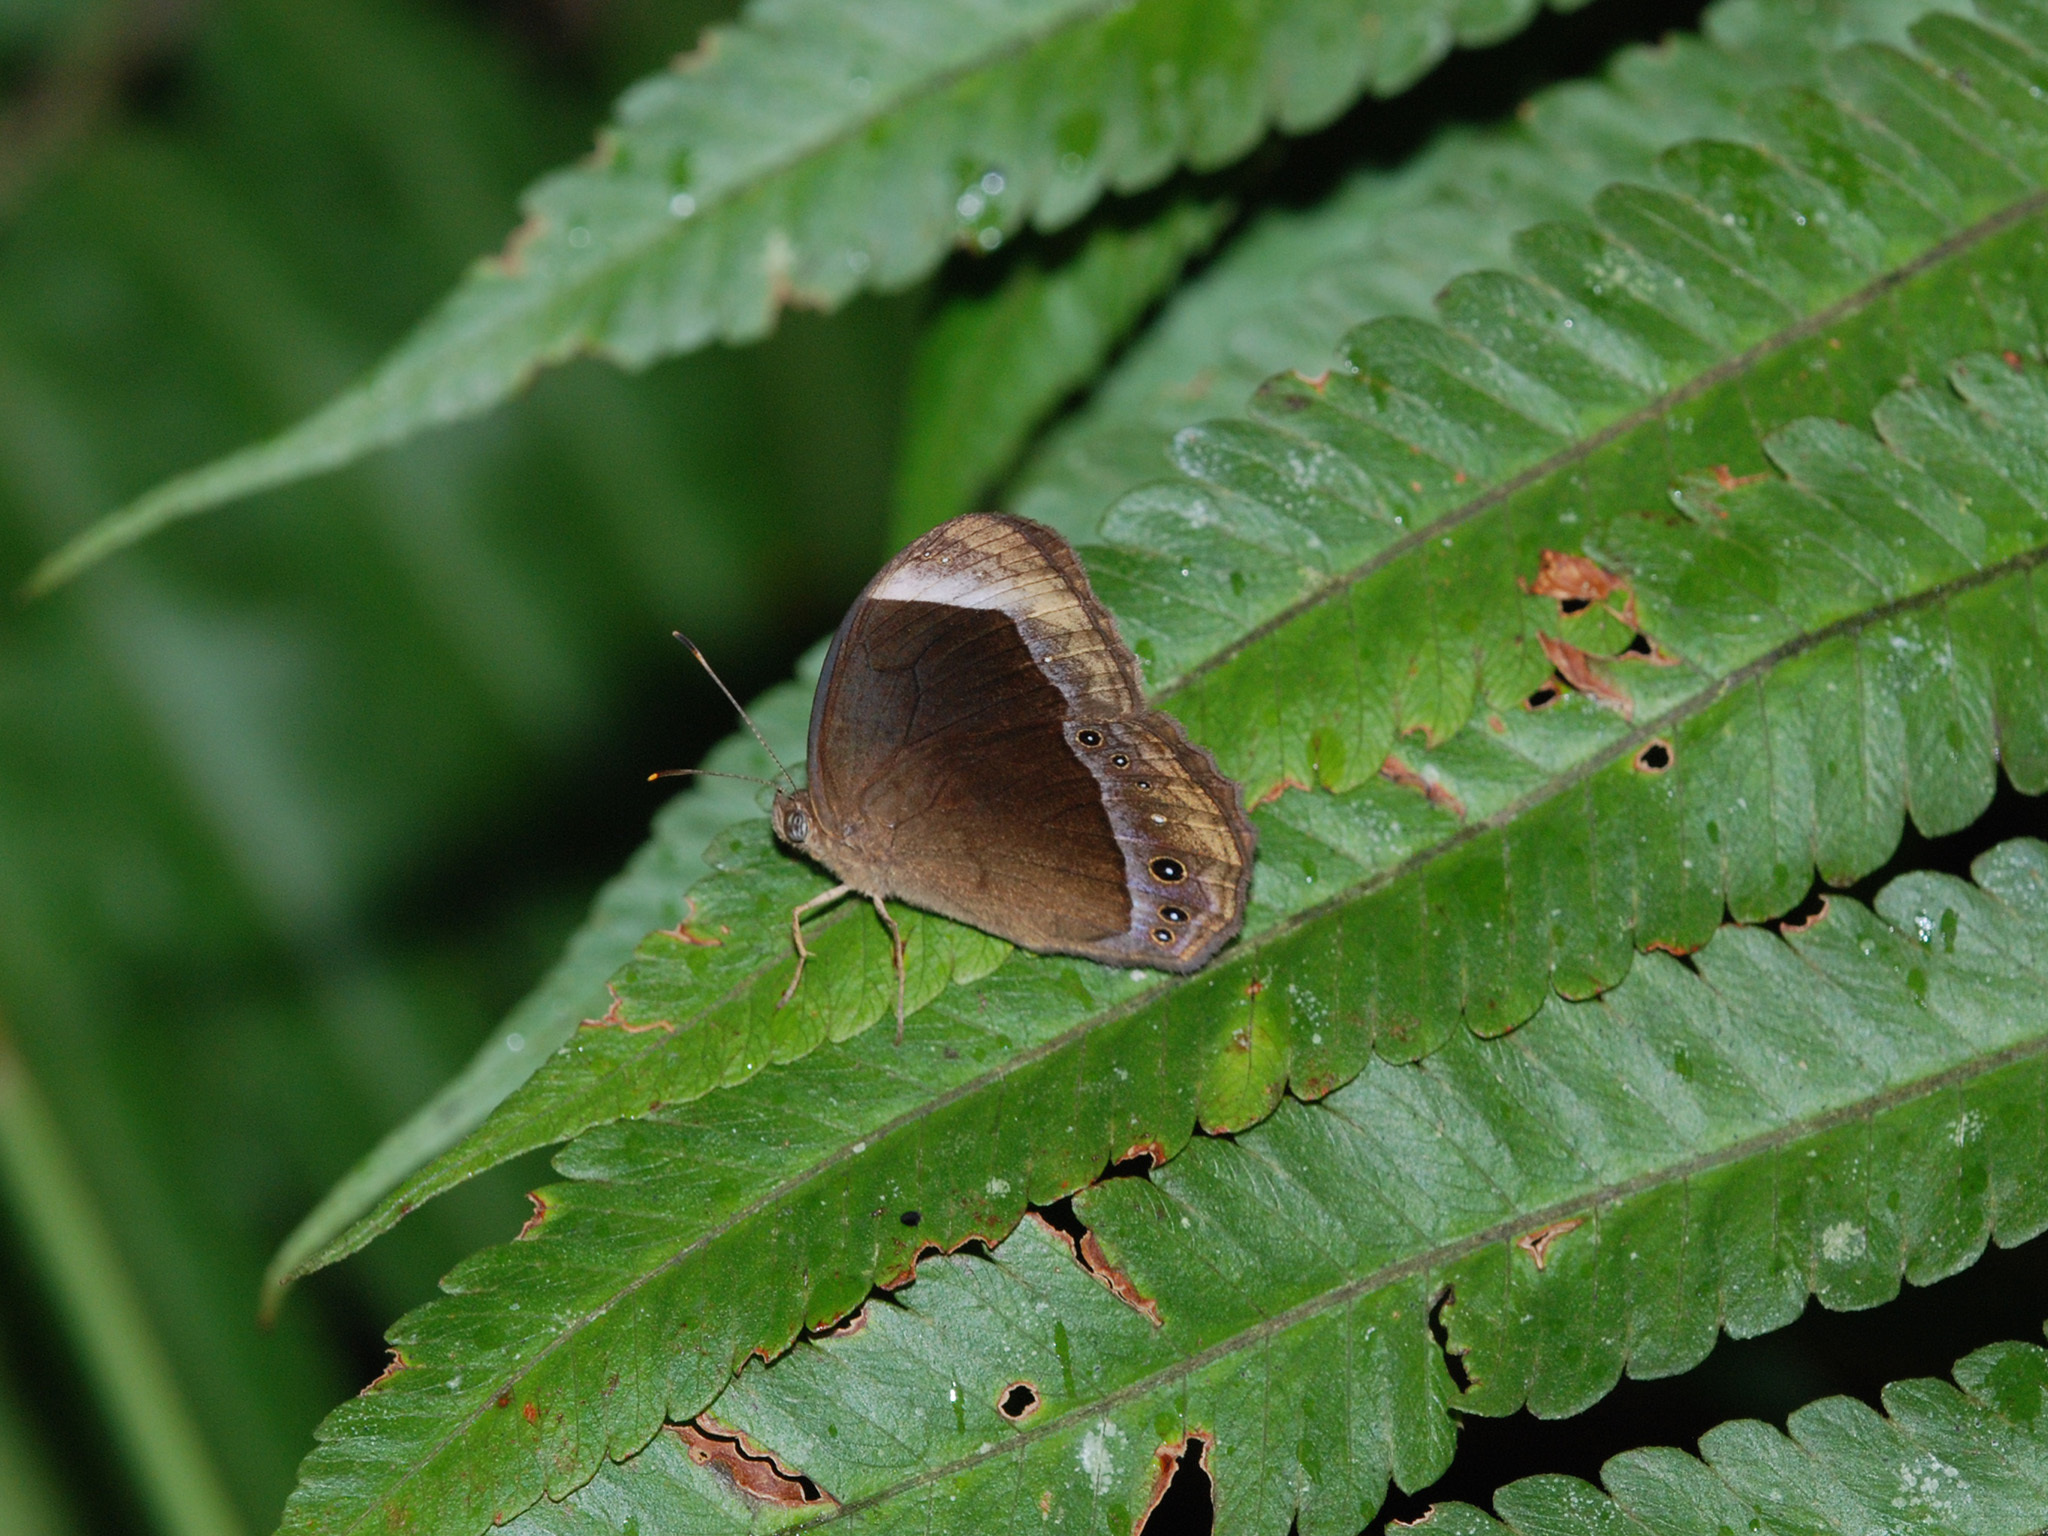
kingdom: Animalia
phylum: Arthropoda
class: Insecta
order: Lepidoptera
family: Nymphalidae
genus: Mycalesis
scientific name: Mycalesis anaxias
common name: White-bar bushbrown
